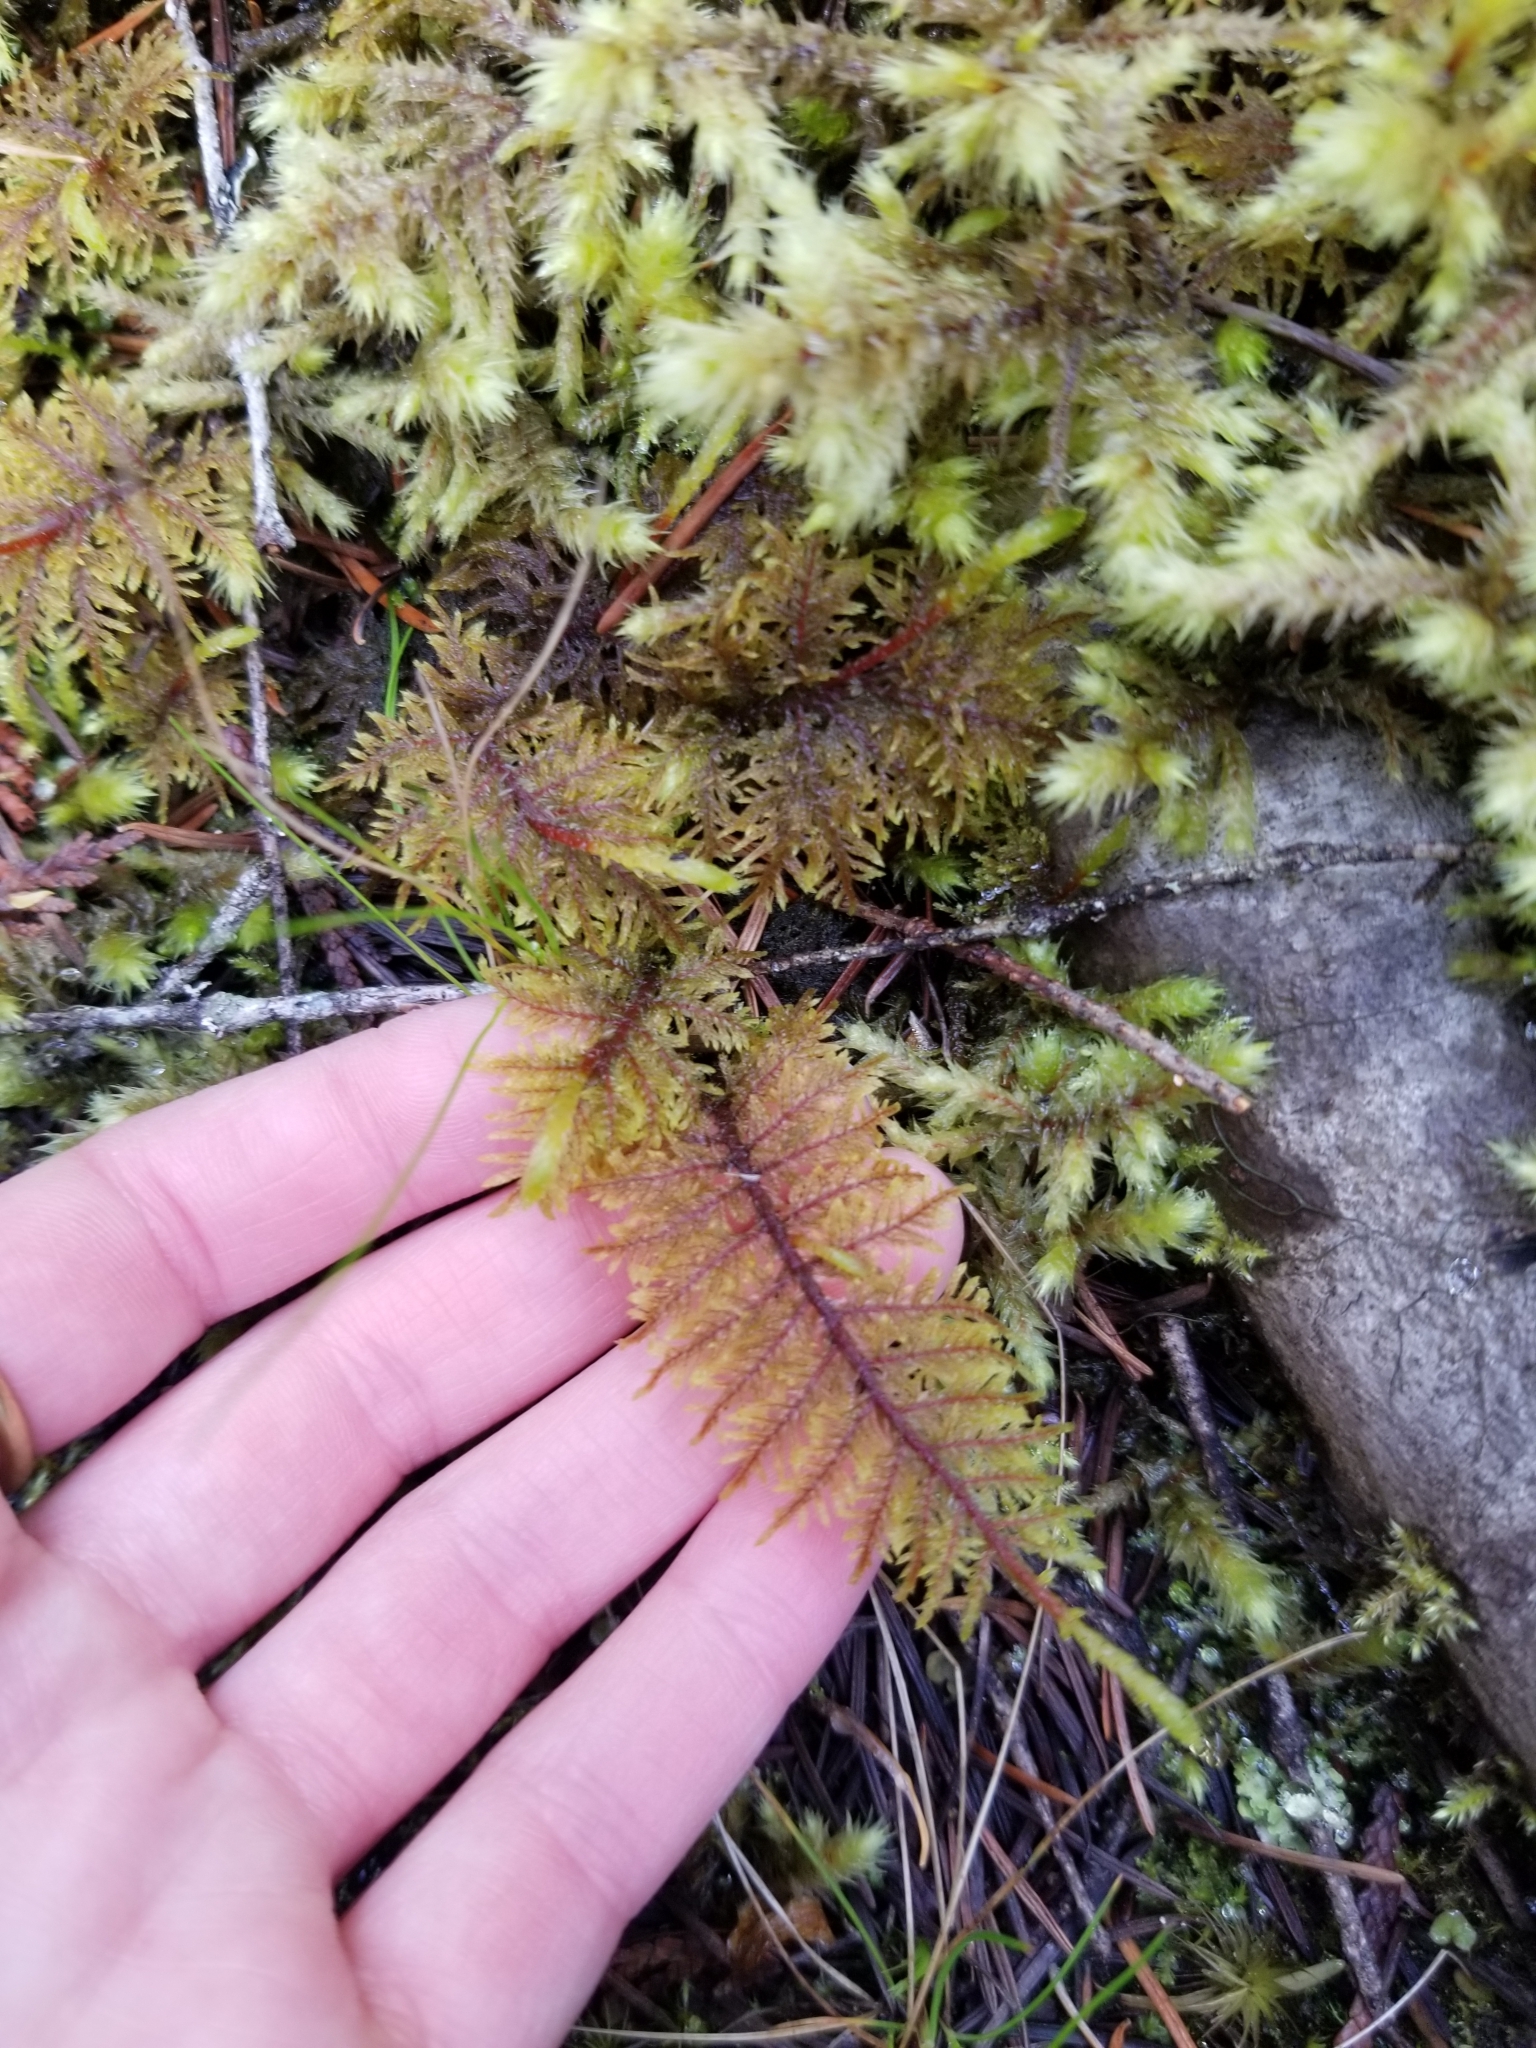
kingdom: Plantae
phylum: Bryophyta
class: Bryopsida
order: Hypnales
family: Hylocomiaceae
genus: Hylocomium
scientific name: Hylocomium splendens
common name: Stairstep moss
